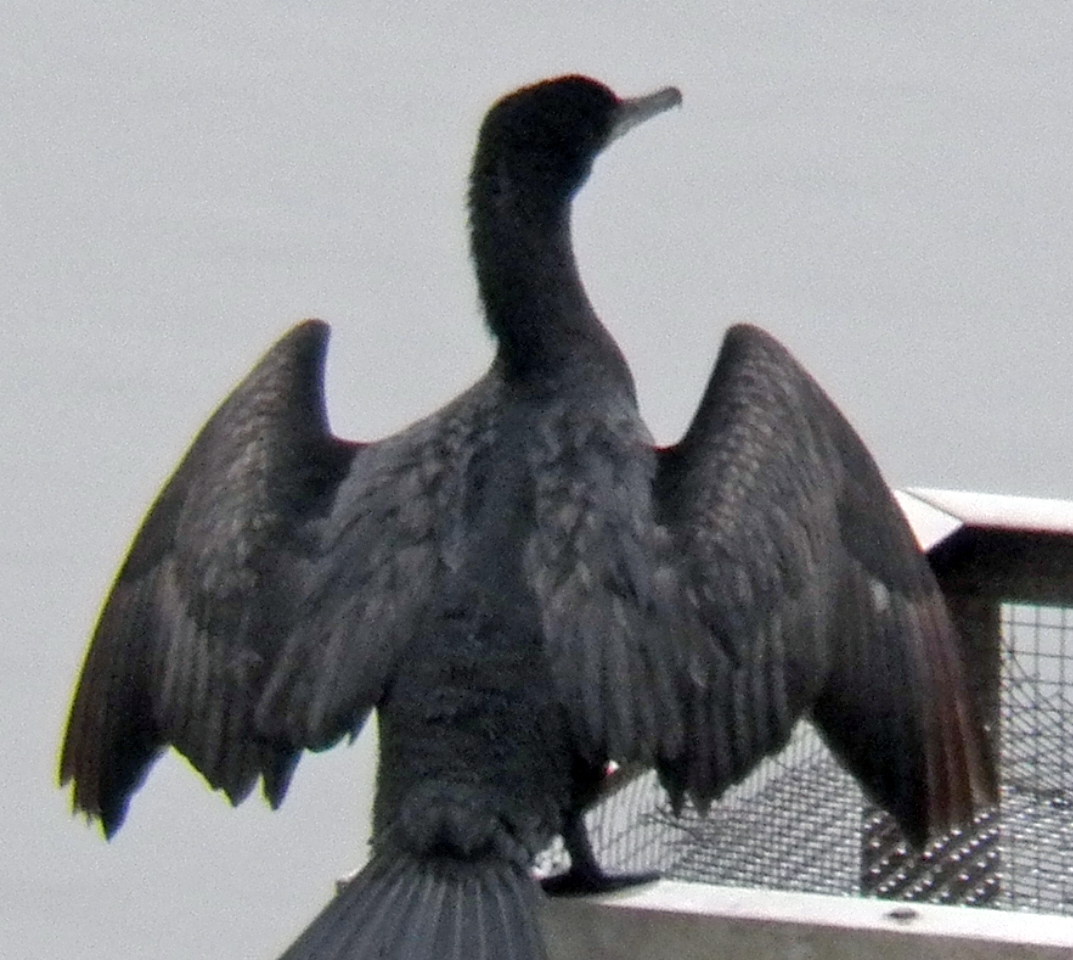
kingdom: Animalia
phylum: Chordata
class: Aves
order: Suliformes
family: Phalacrocoracidae
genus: Phalacrocorax
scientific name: Phalacrocorax brasilianus
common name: Neotropic cormorant
